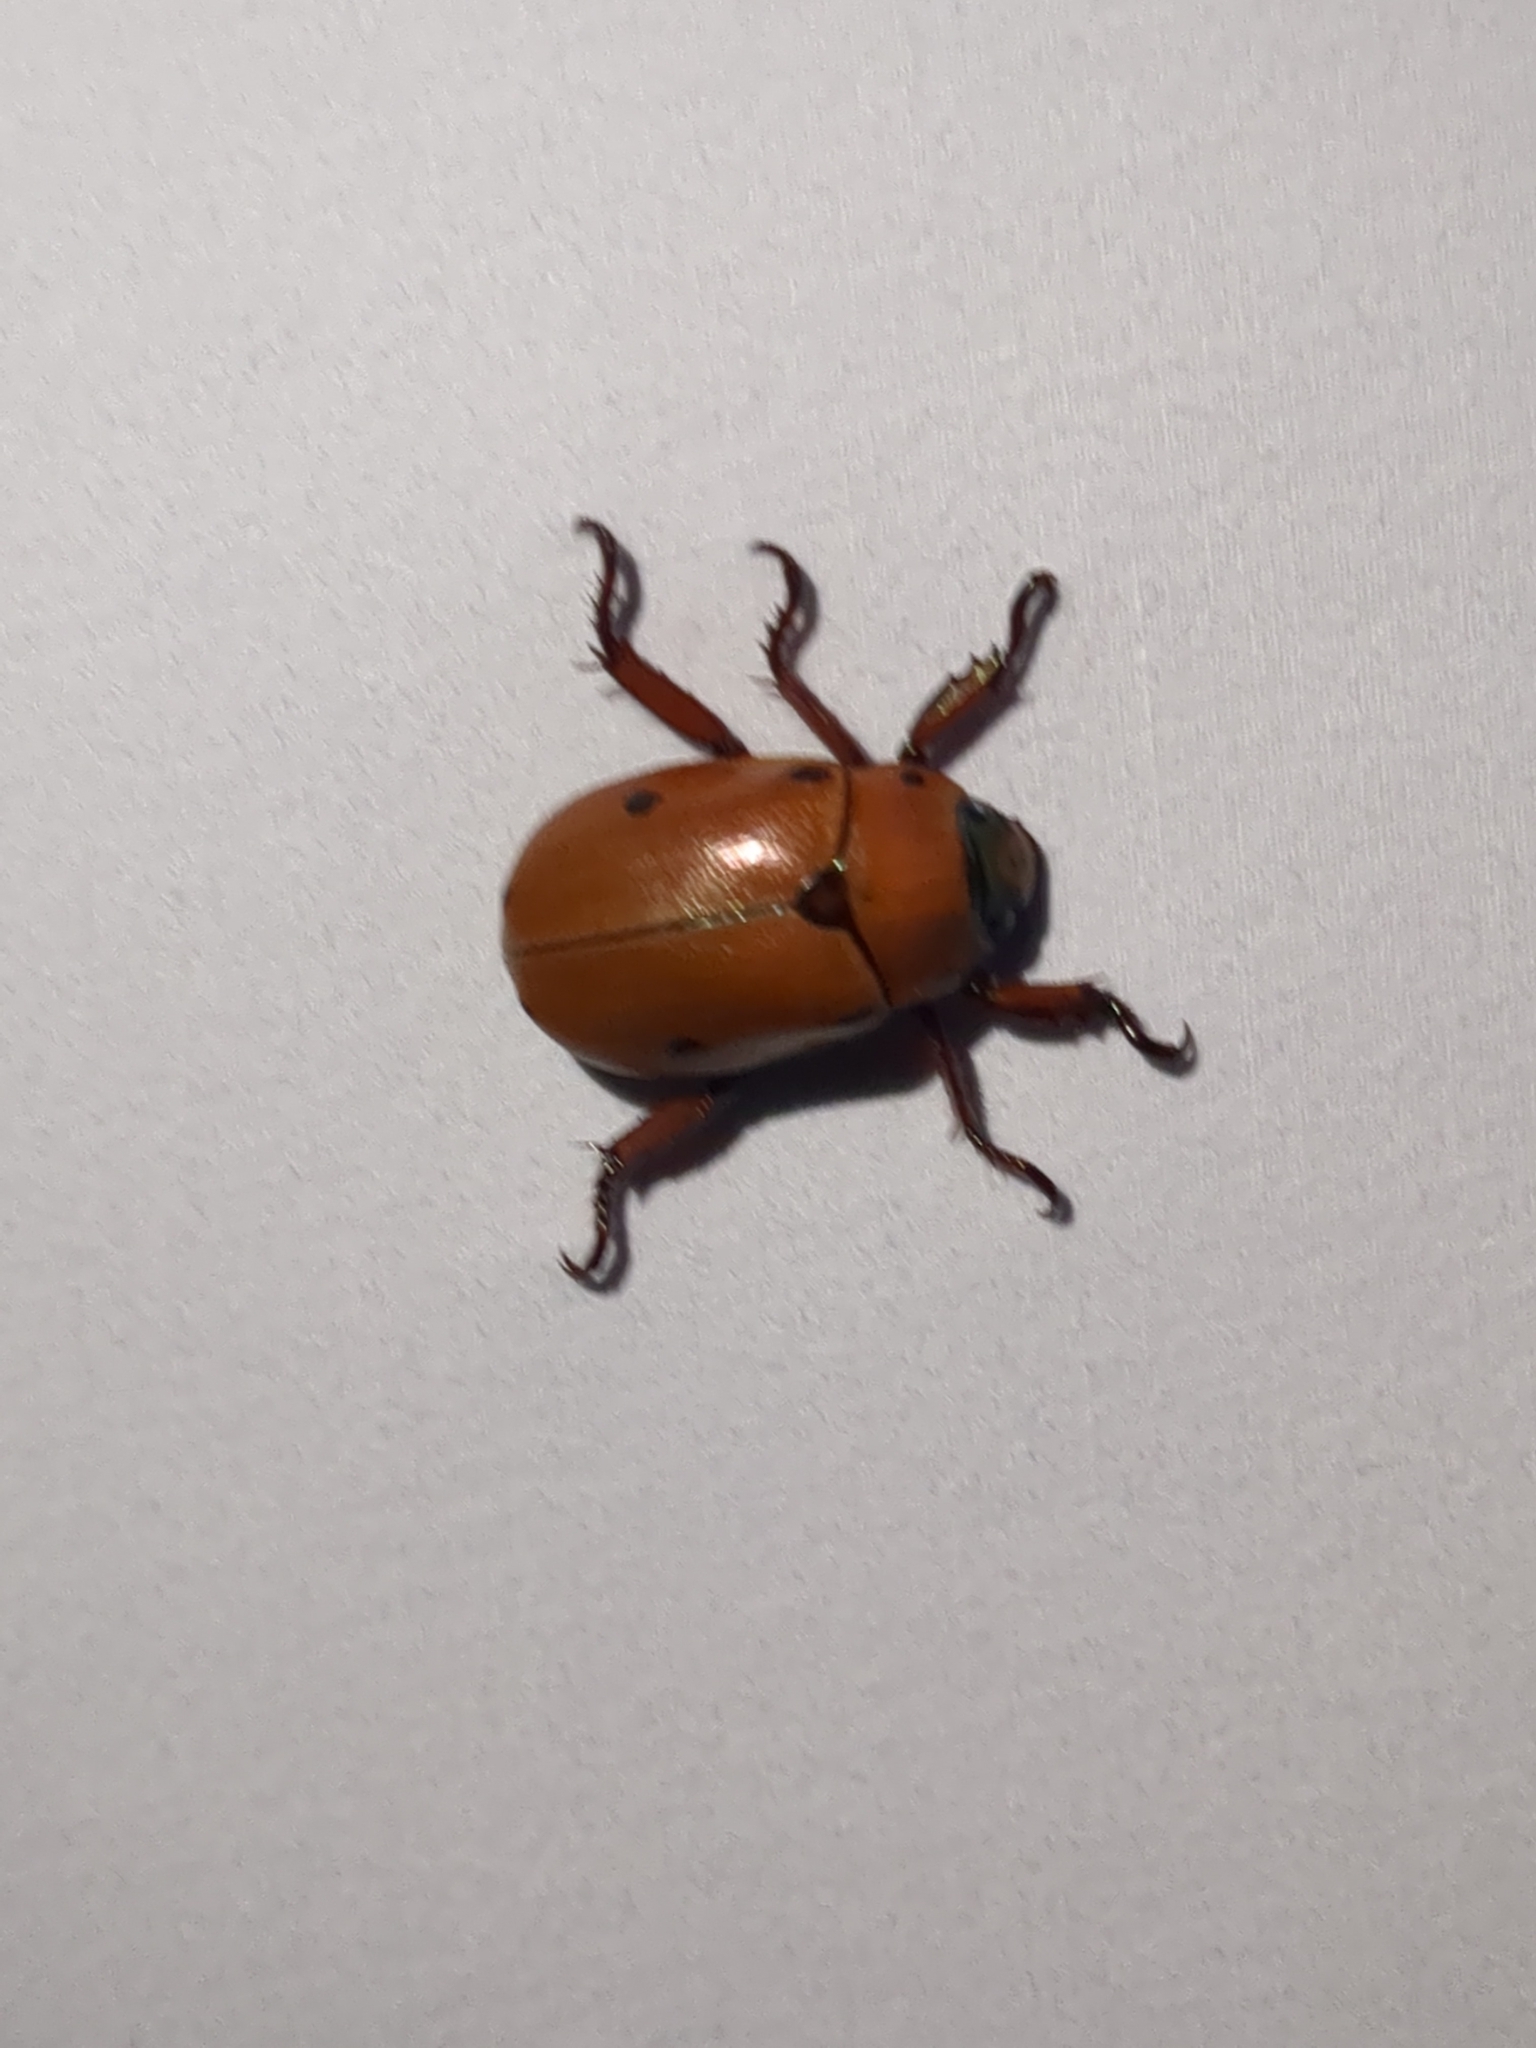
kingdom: Animalia
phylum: Arthropoda
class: Insecta
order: Coleoptera
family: Scarabaeidae
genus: Pelidnota
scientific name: Pelidnota punctata
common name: Grapevine beetle
